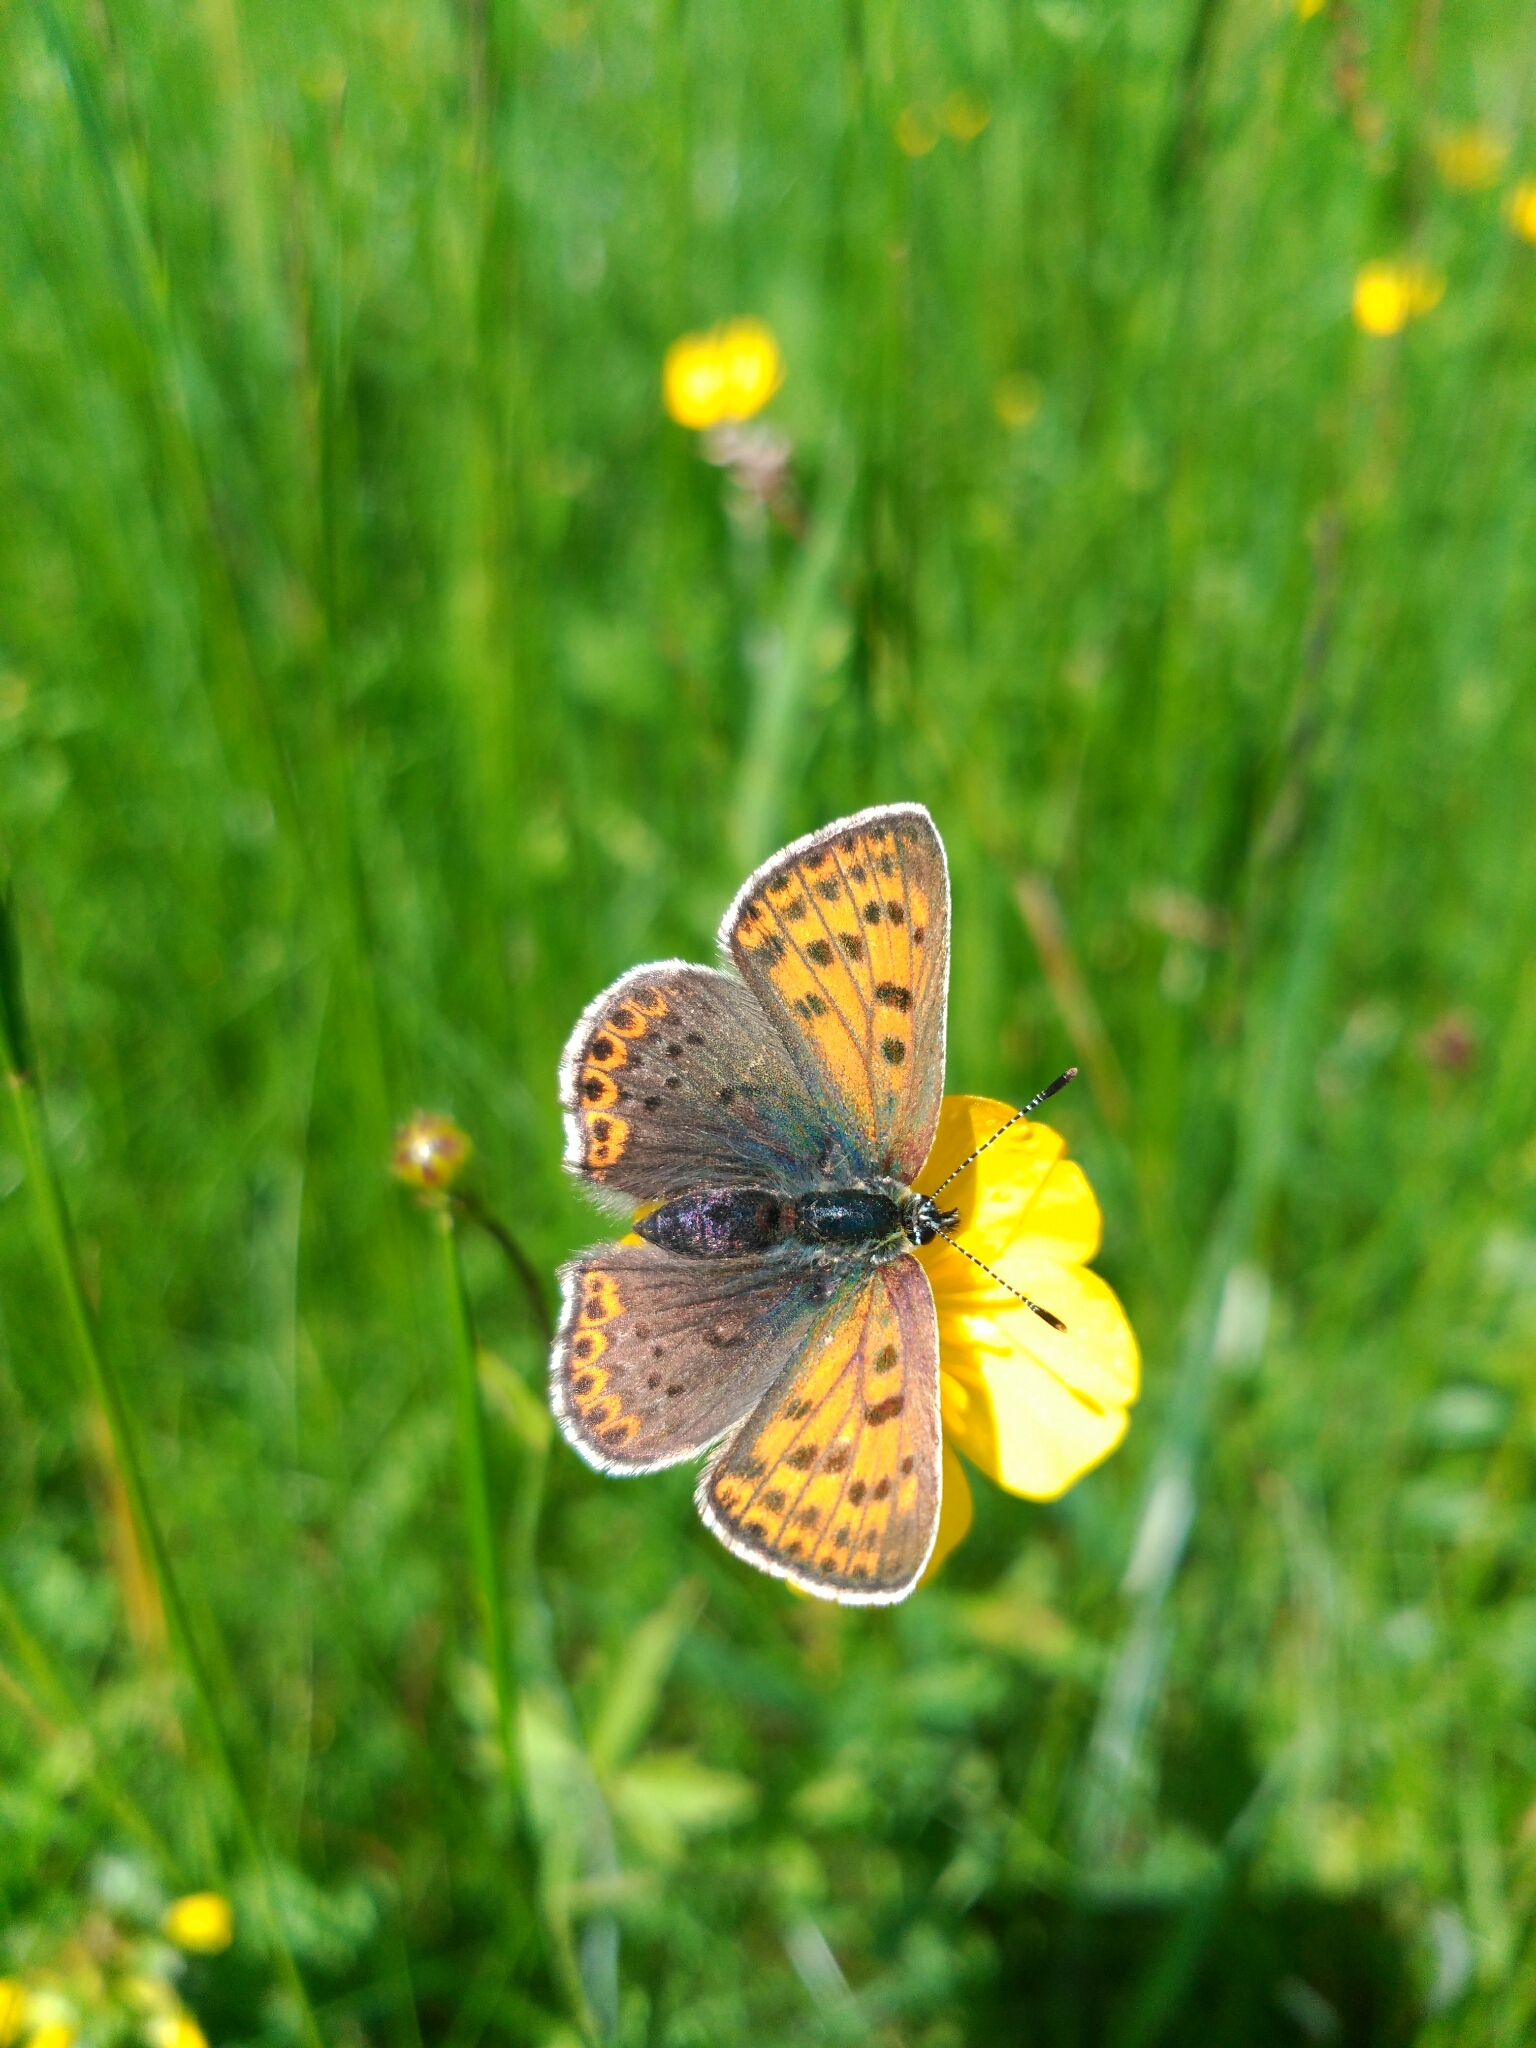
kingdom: Animalia
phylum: Arthropoda
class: Insecta
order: Lepidoptera
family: Lycaenidae
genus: Loweia
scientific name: Loweia tityrus
